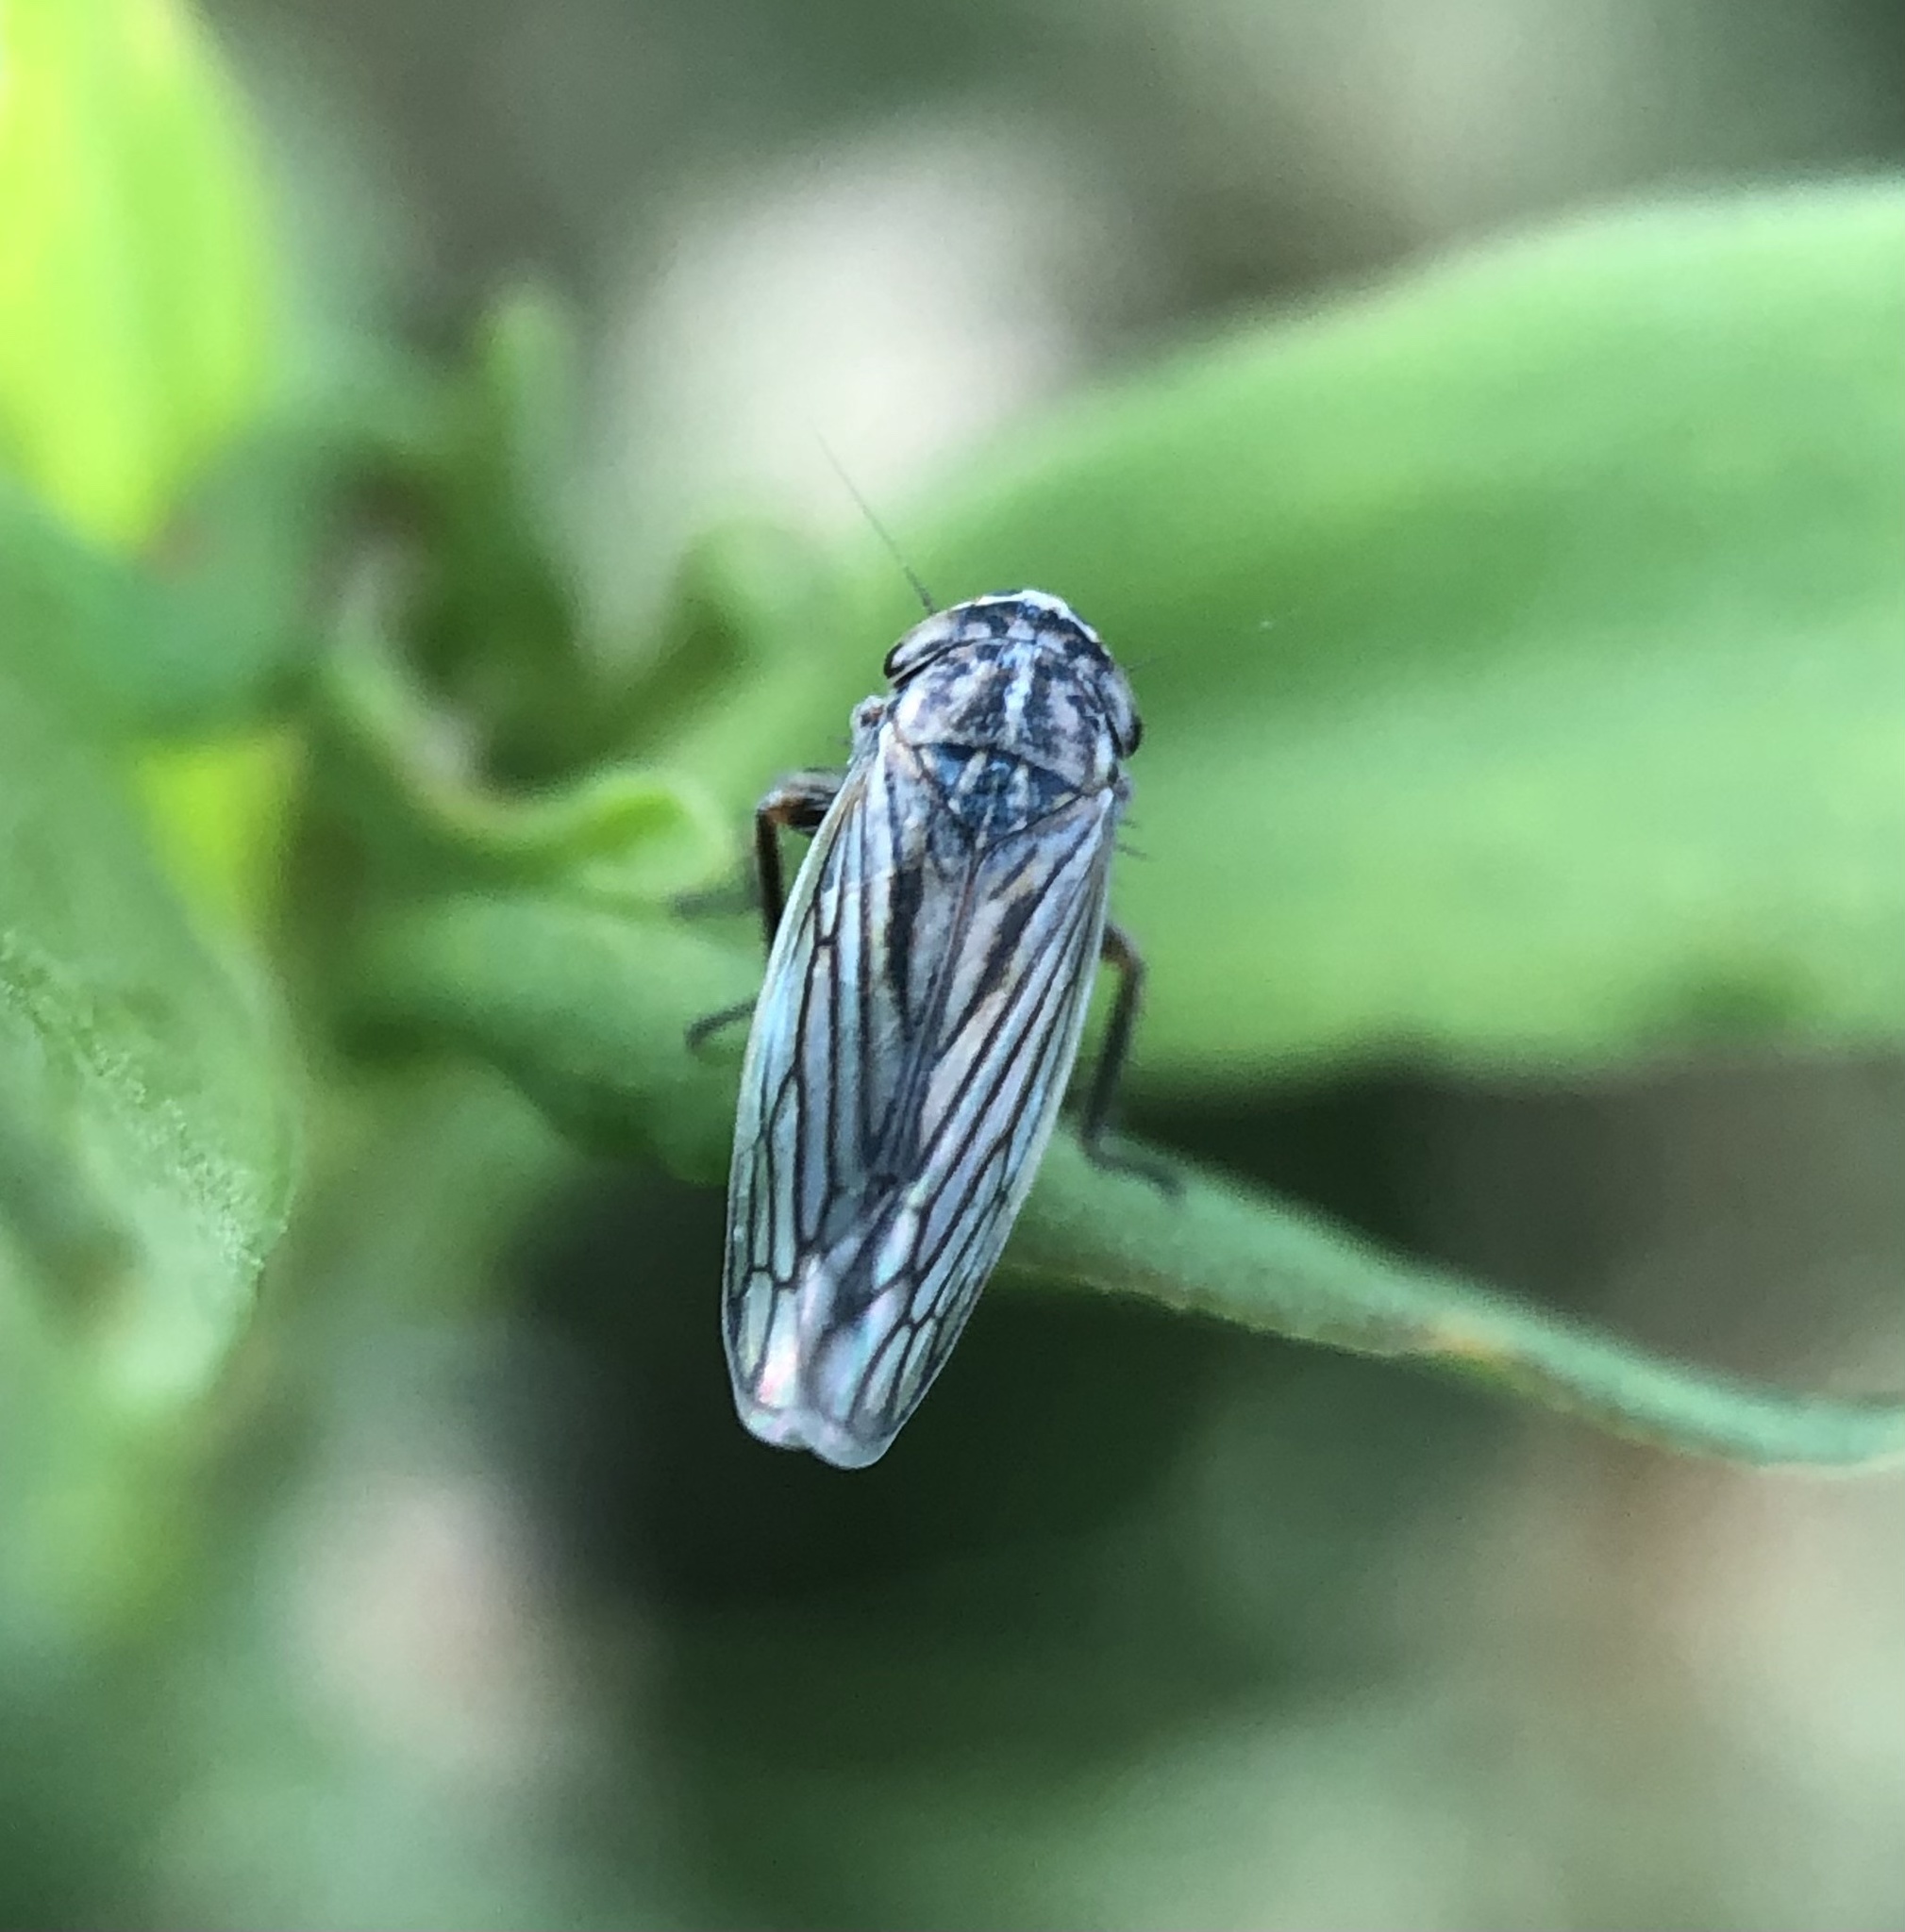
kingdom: Animalia
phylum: Arthropoda
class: Insecta
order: Hemiptera
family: Cicadellidae
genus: Exitianus
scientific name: Exitianus exitiosus
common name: Gray lawn leafhopper
